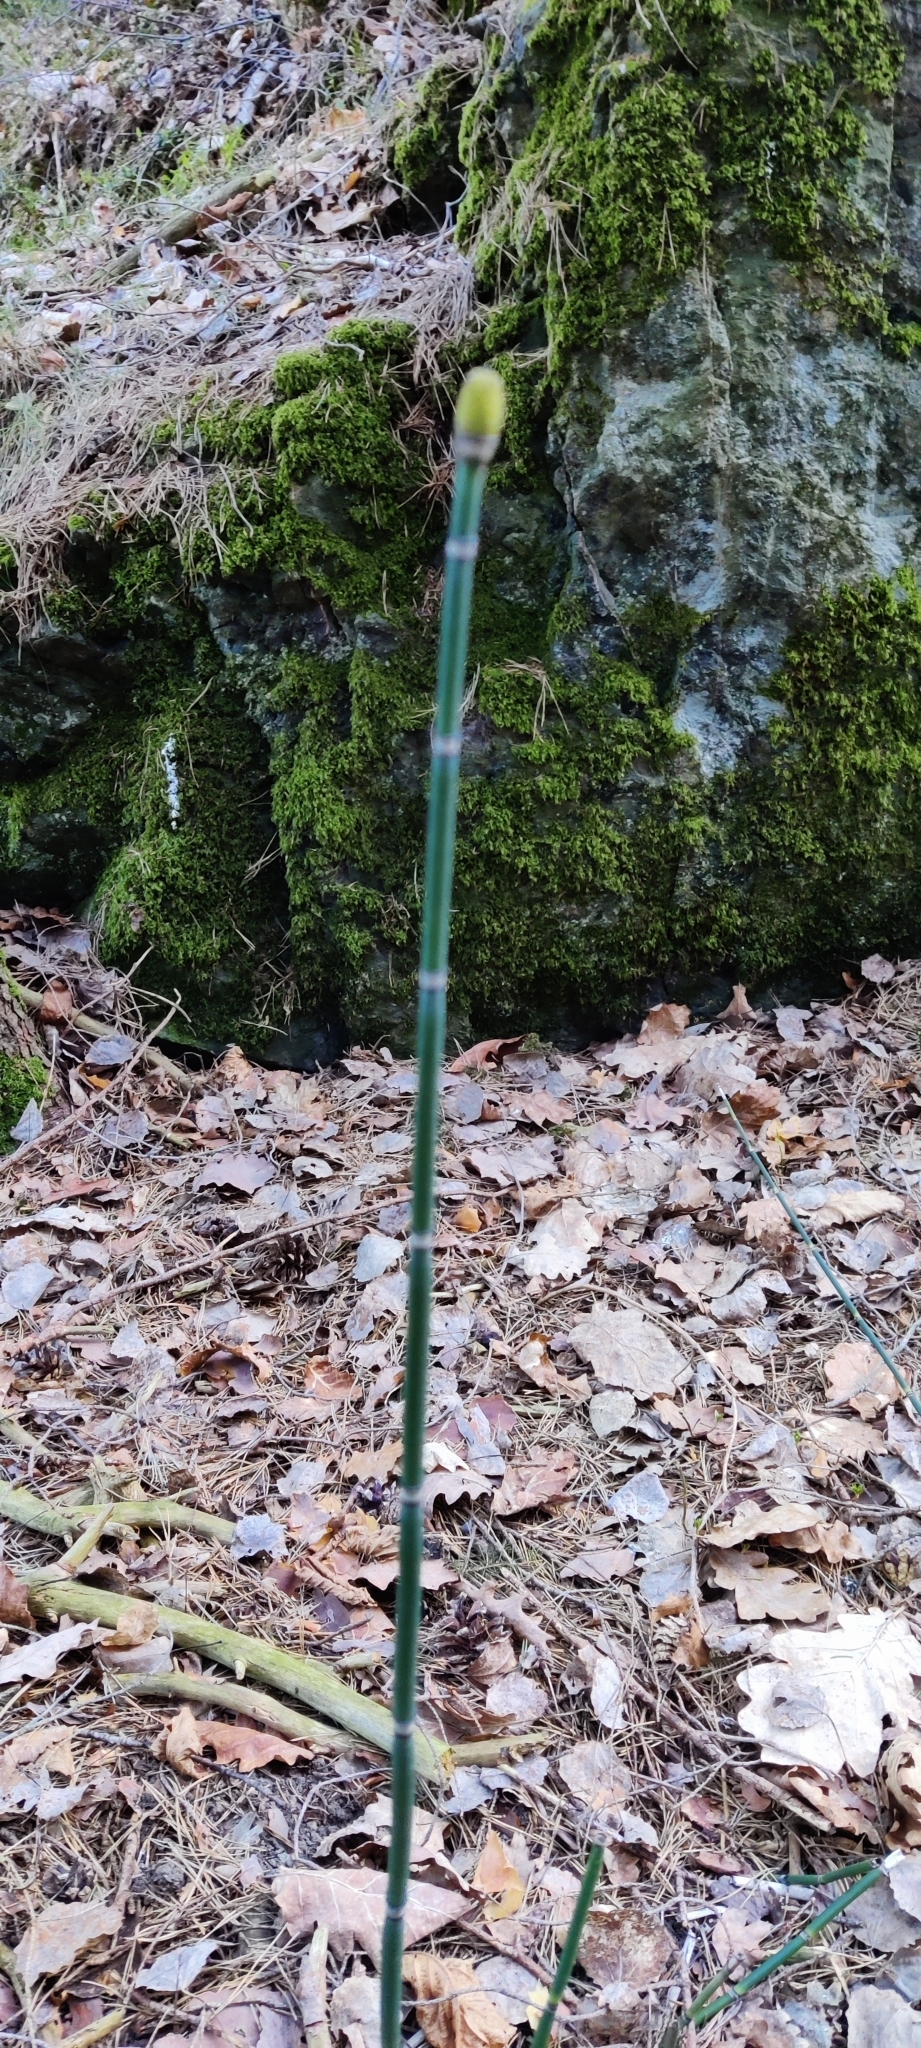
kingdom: Plantae
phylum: Tracheophyta
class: Polypodiopsida
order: Equisetales
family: Equisetaceae
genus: Equisetum
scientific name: Equisetum hyemale
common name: Rough horsetail
